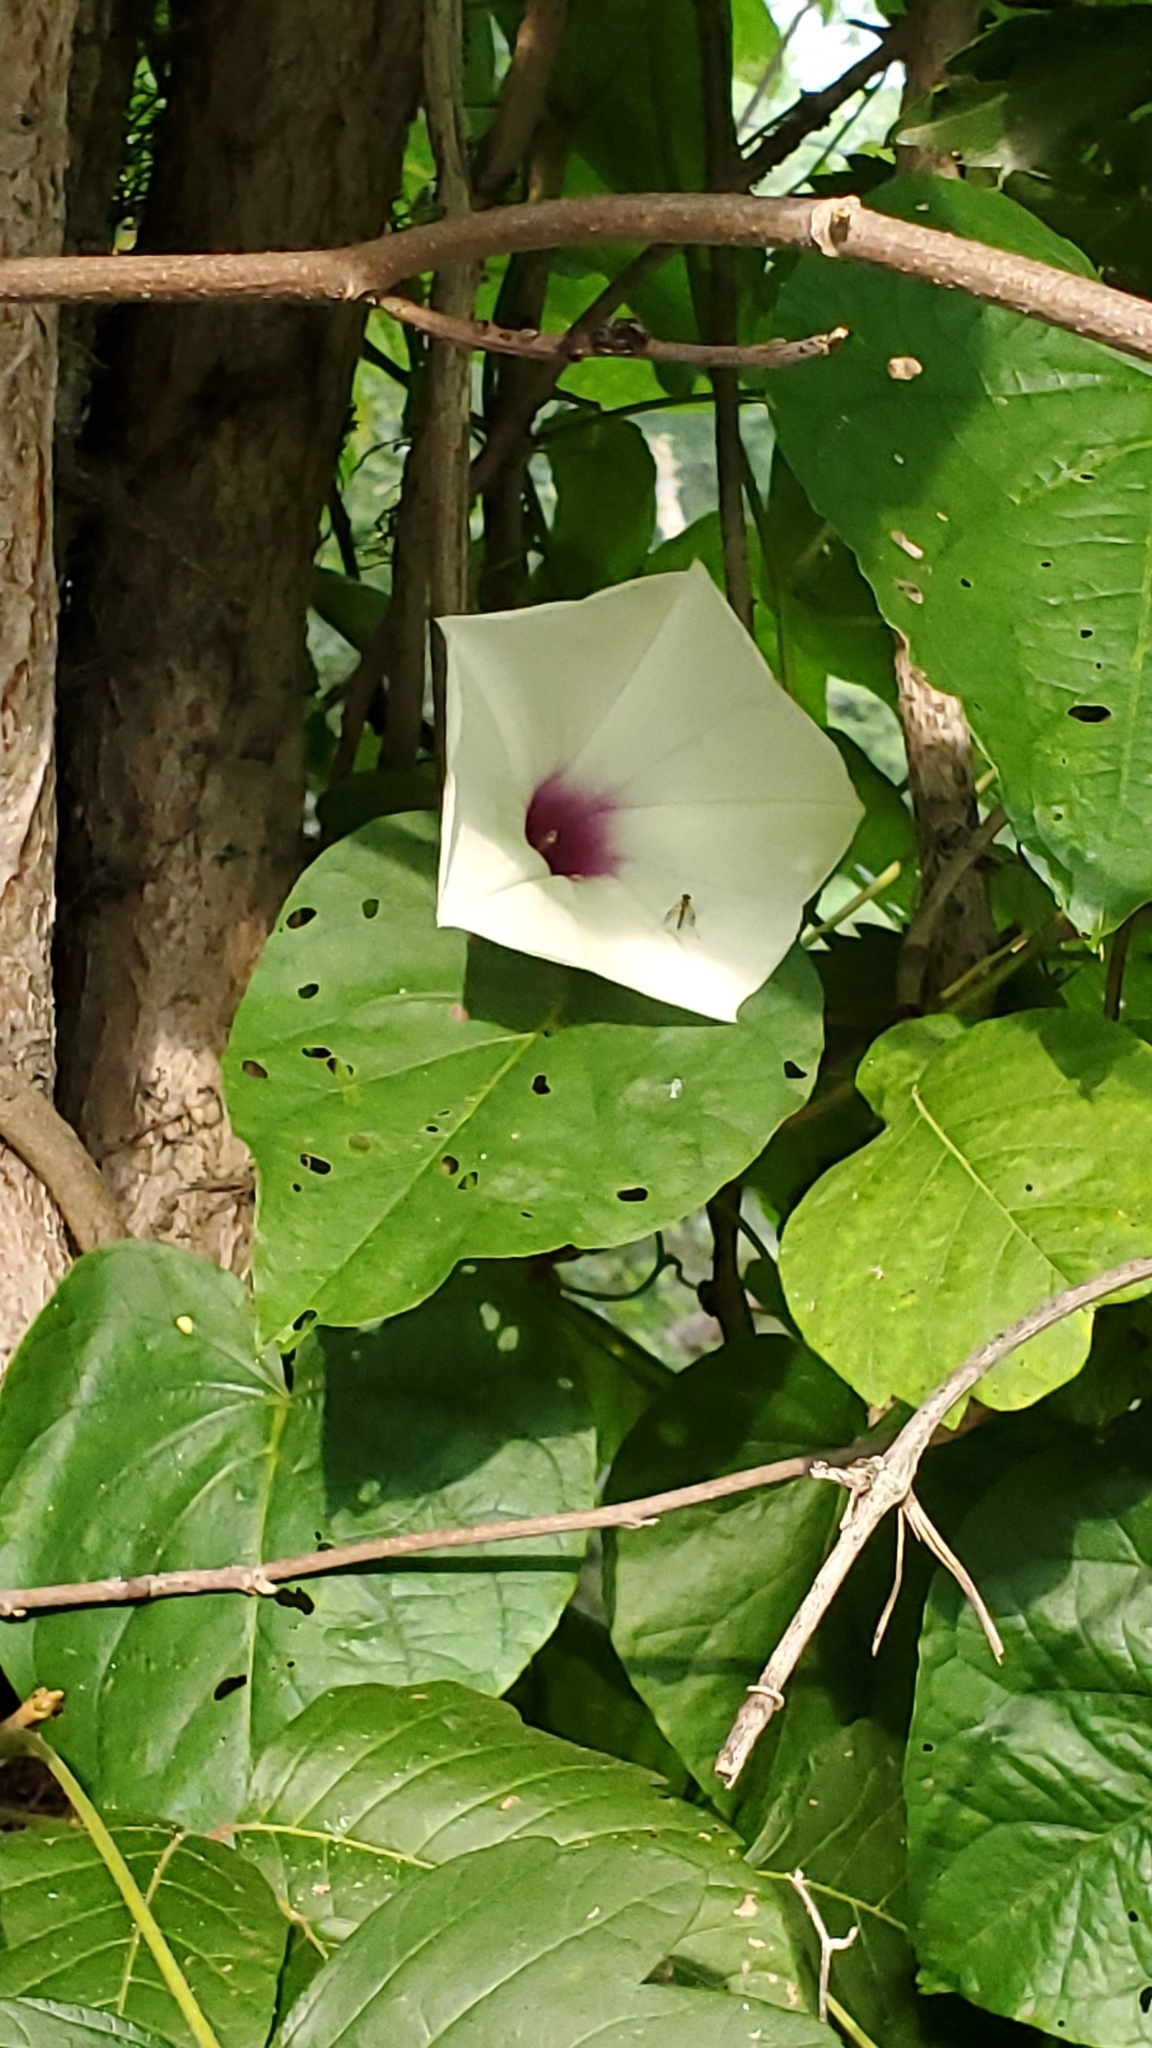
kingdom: Plantae
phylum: Tracheophyta
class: Magnoliopsida
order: Solanales
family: Convolvulaceae
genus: Ipomoea
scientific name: Ipomoea pandurata
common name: Man-of-the-earth
